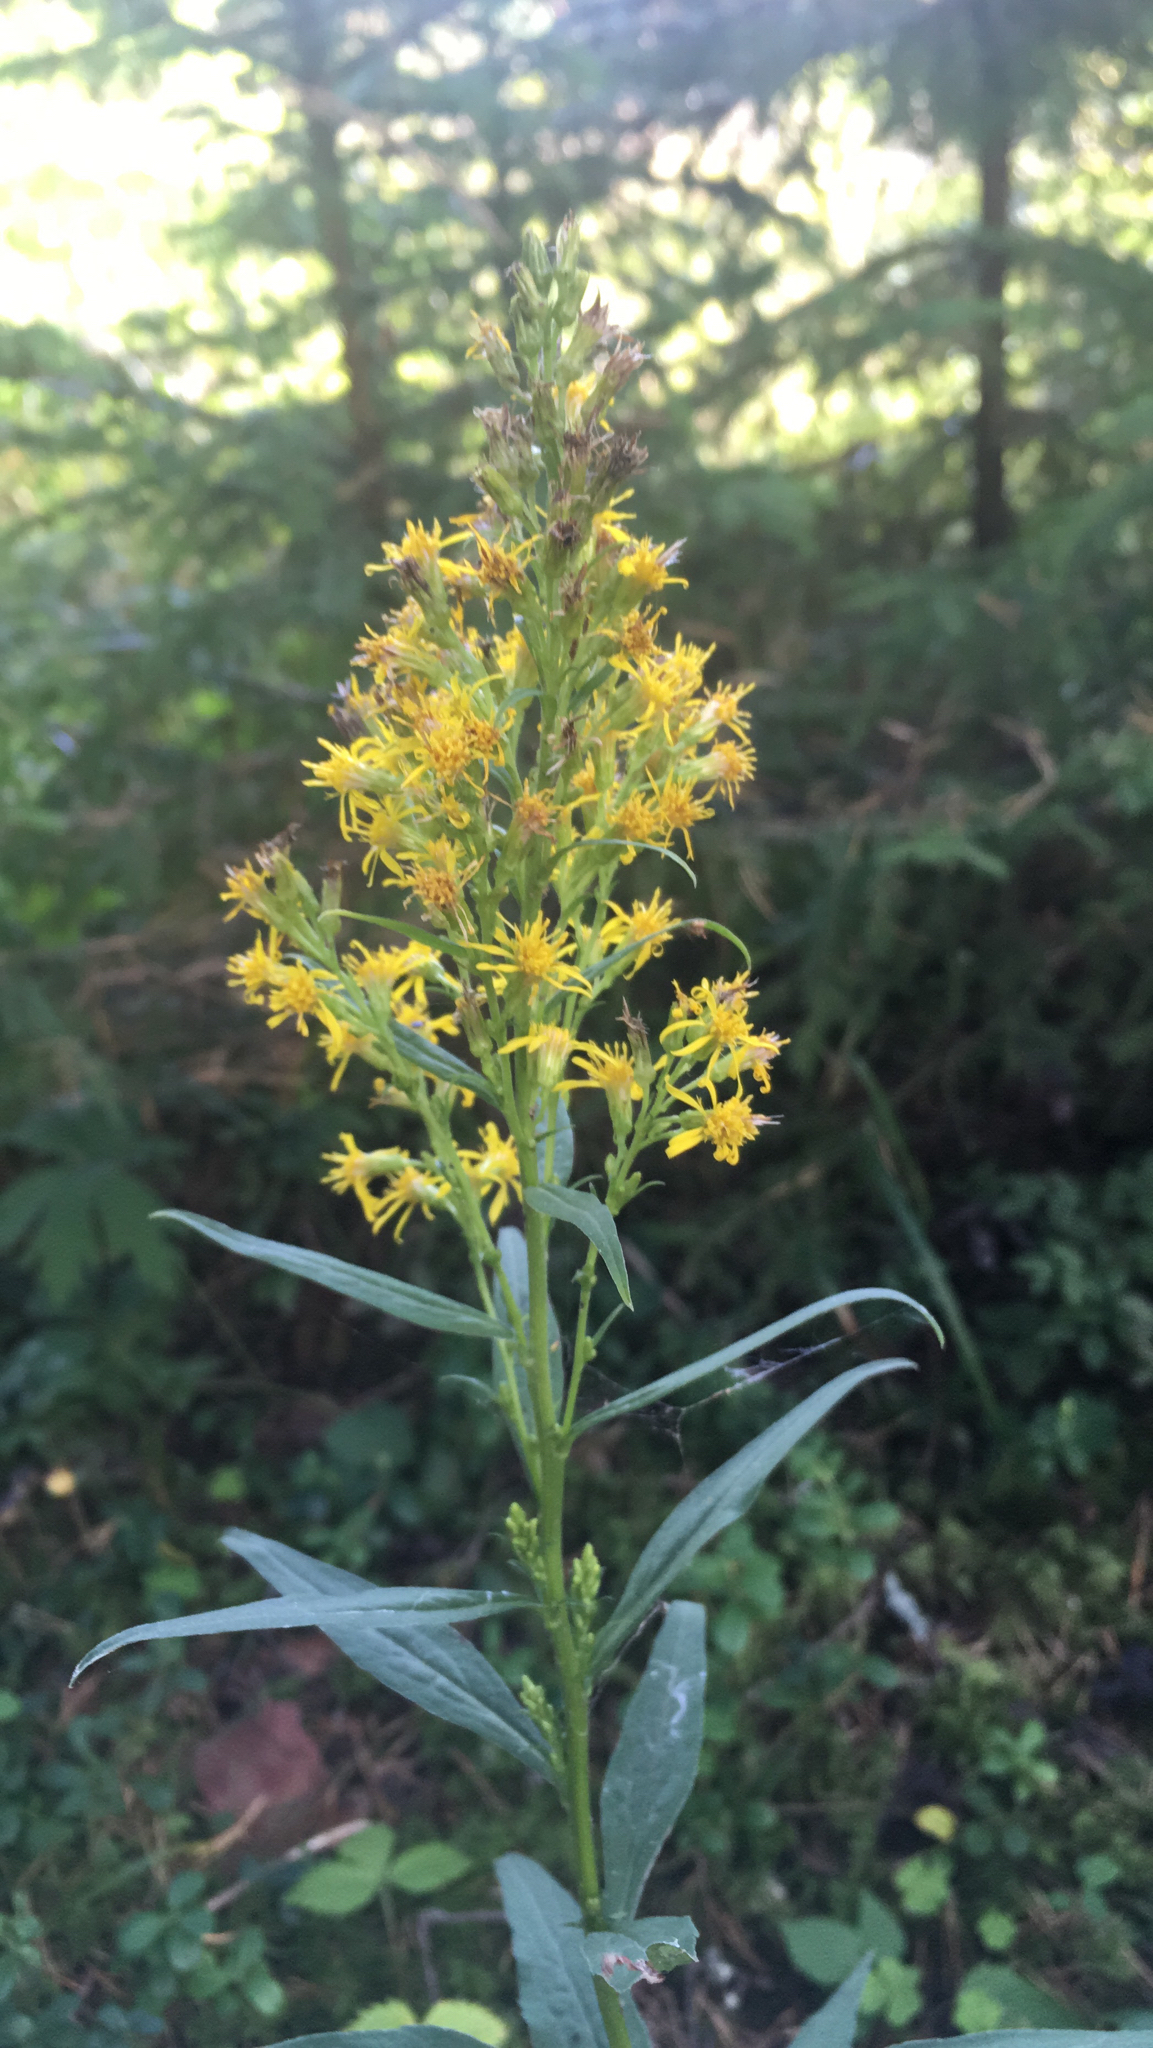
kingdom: Plantae
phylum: Tracheophyta
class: Magnoliopsida
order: Asterales
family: Asteraceae
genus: Solidago
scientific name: Solidago virgaurea
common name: Goldenrod
